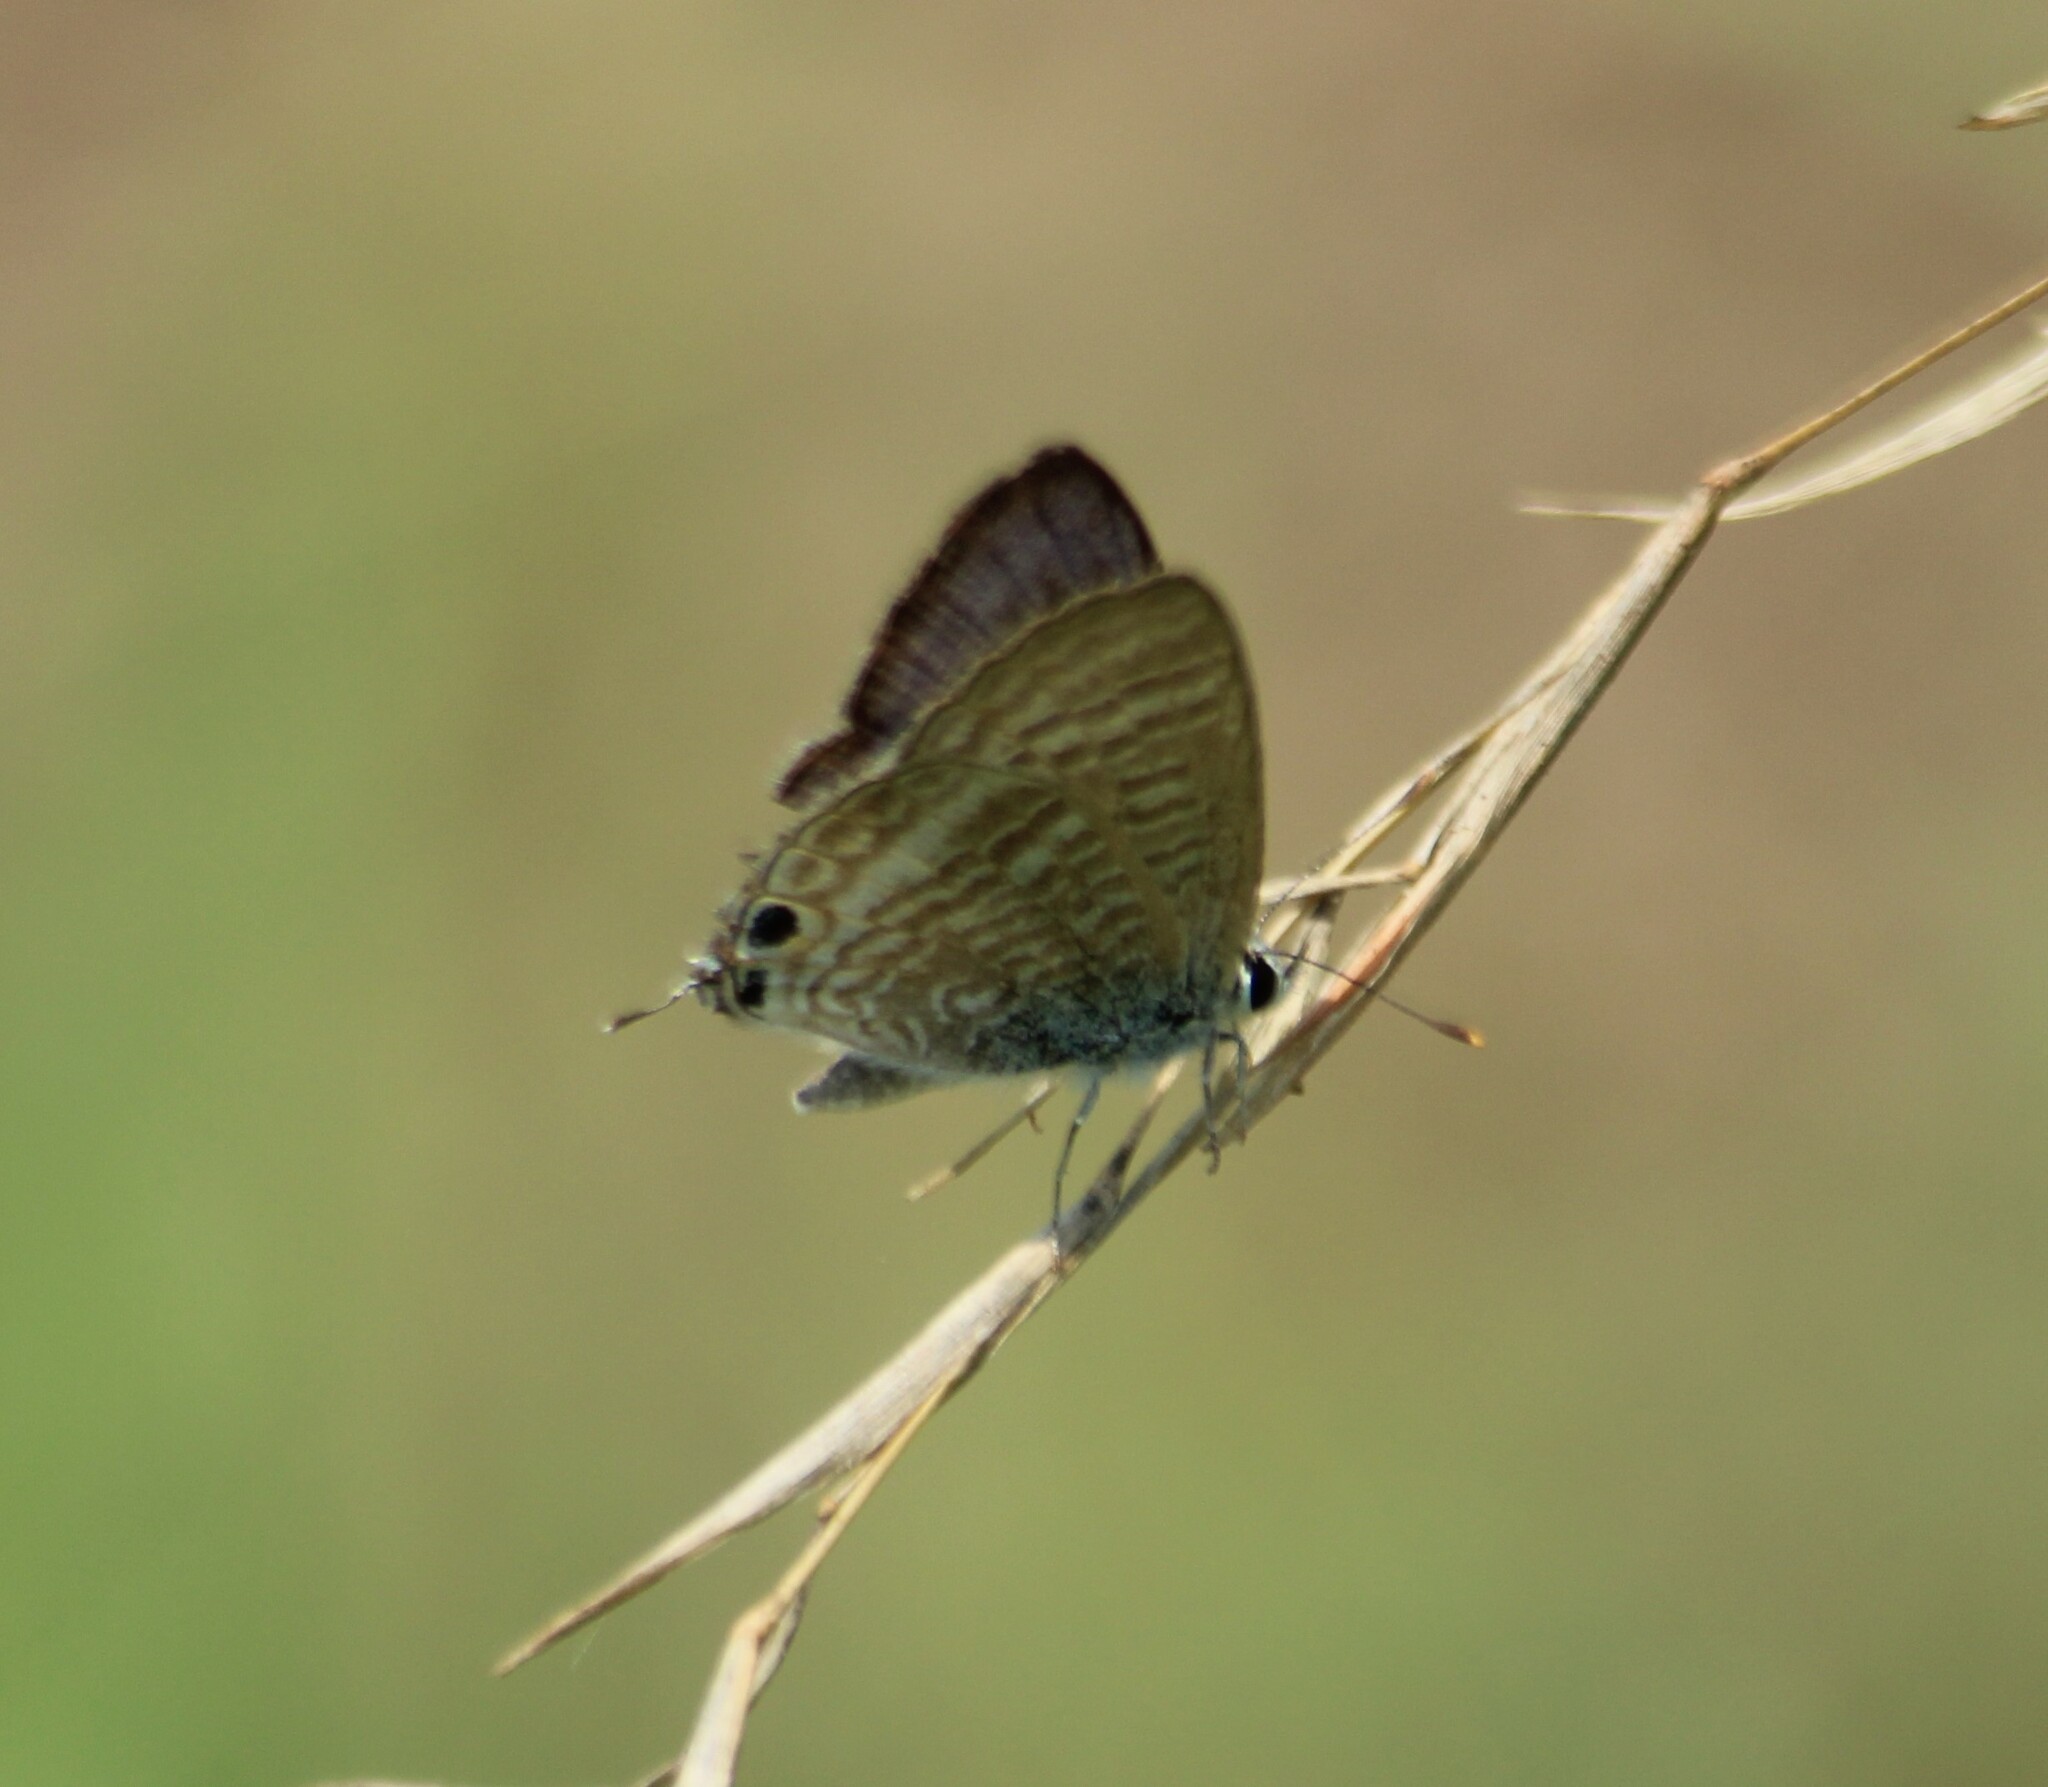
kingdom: Animalia
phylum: Arthropoda
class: Insecta
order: Lepidoptera
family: Lycaenidae
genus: Lampides
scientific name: Lampides boeticus
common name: Long-tailed blue
